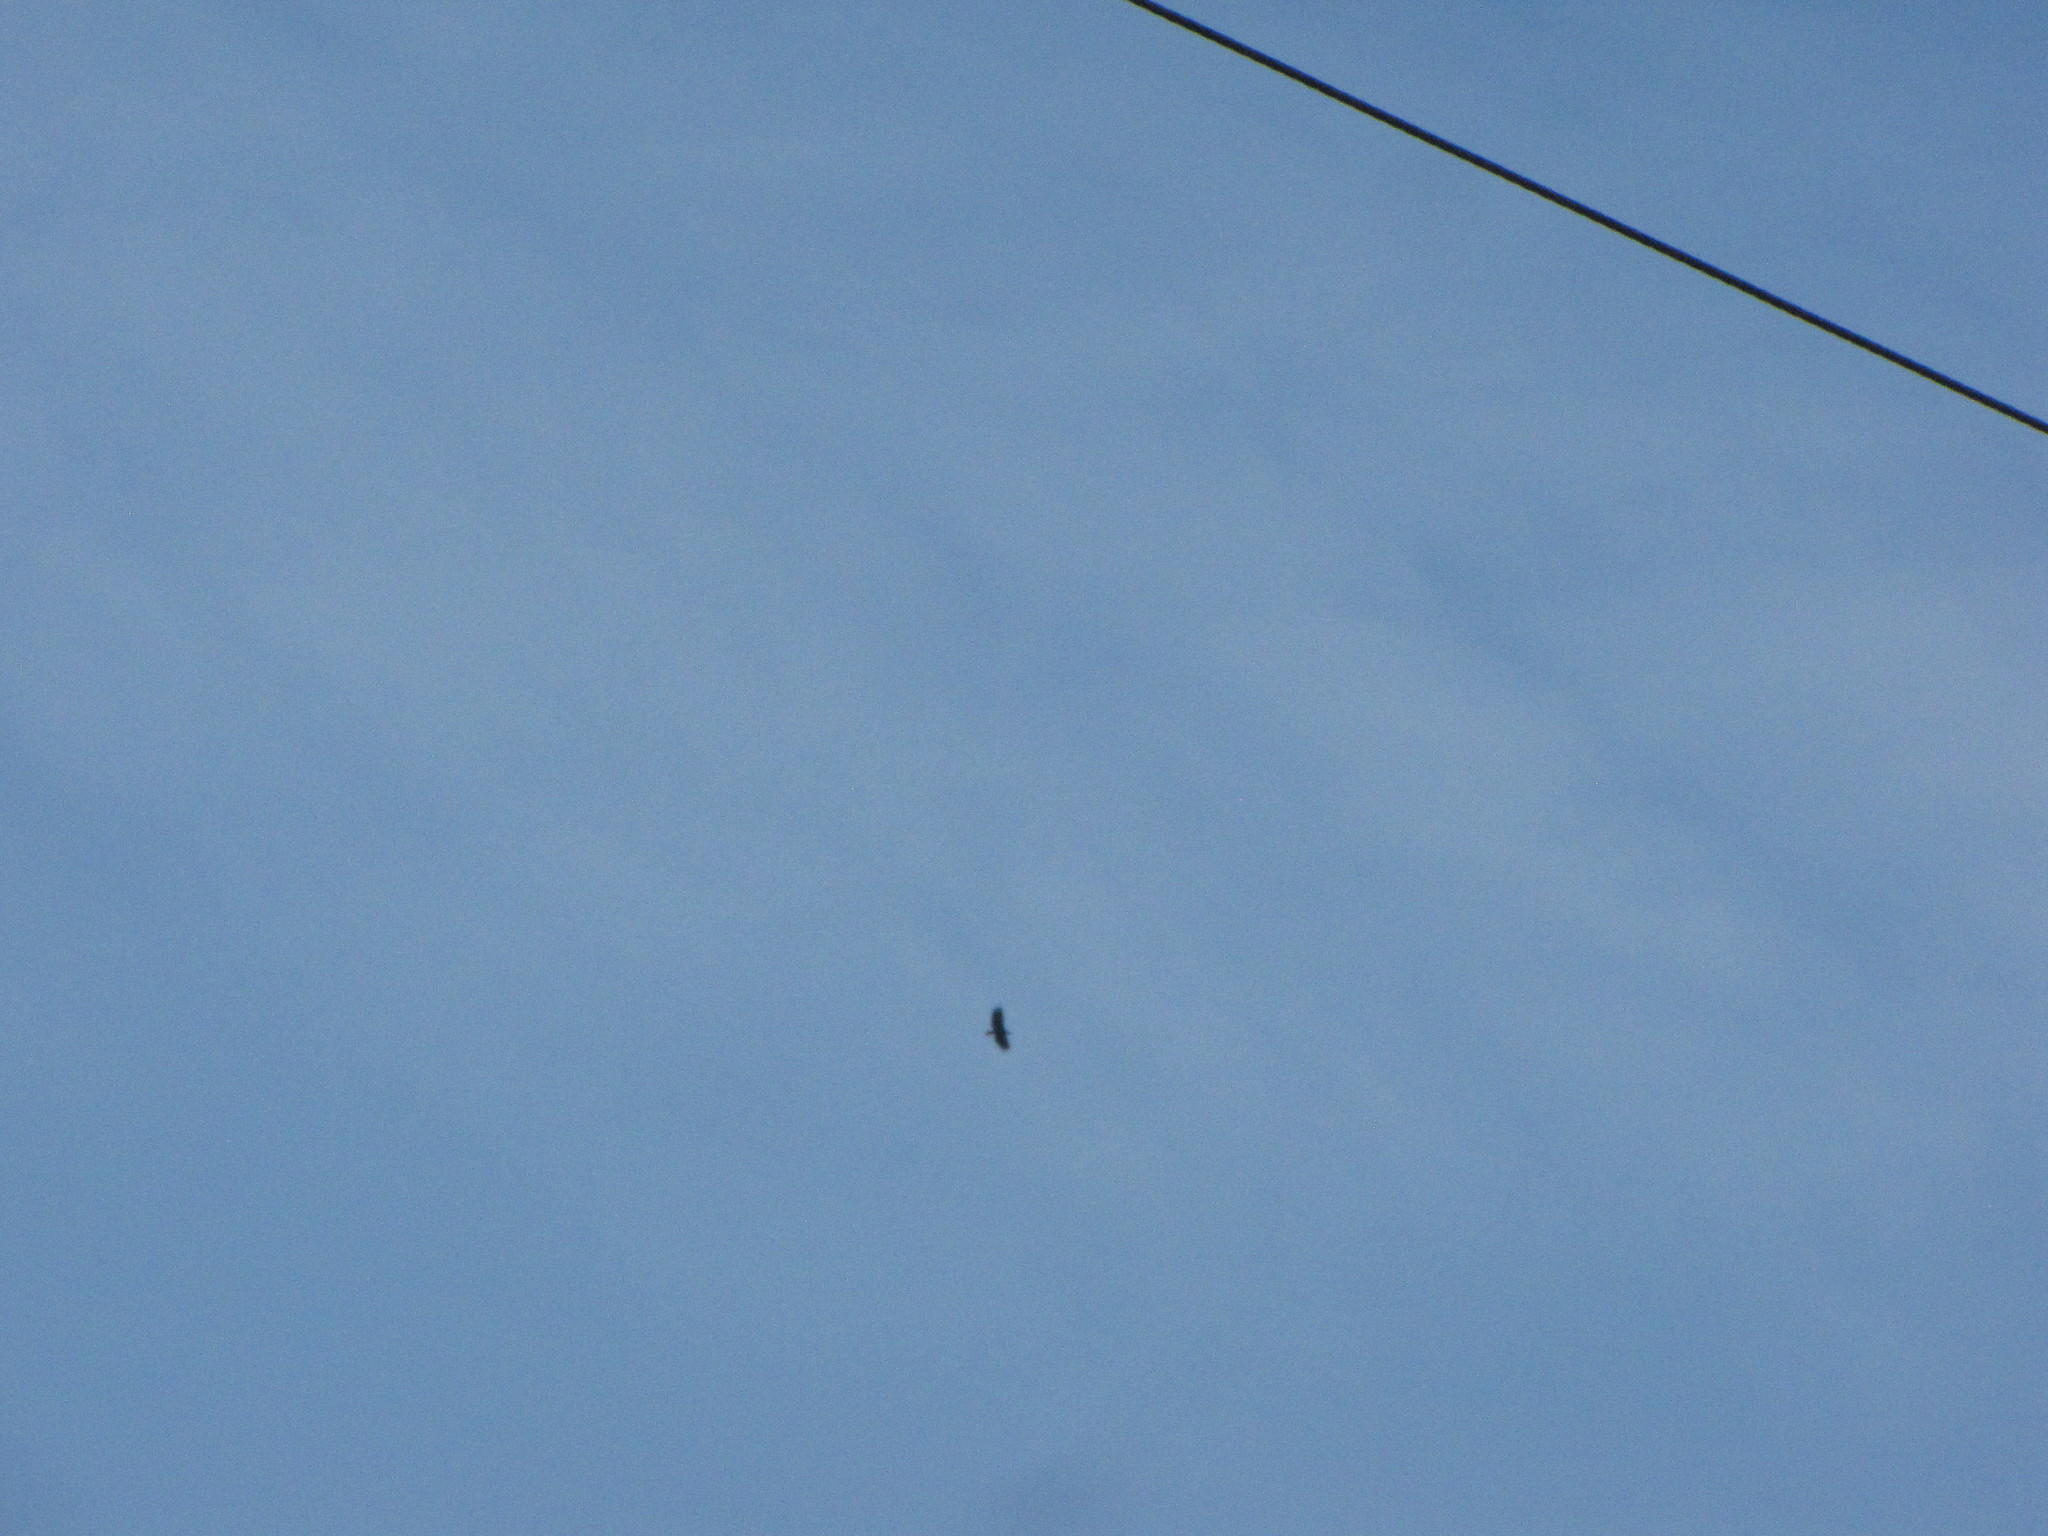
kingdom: Animalia
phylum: Chordata
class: Aves
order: Accipitriformes
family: Accipitridae
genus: Haliaeetus
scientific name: Haliaeetus leucocephalus
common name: Bald eagle
